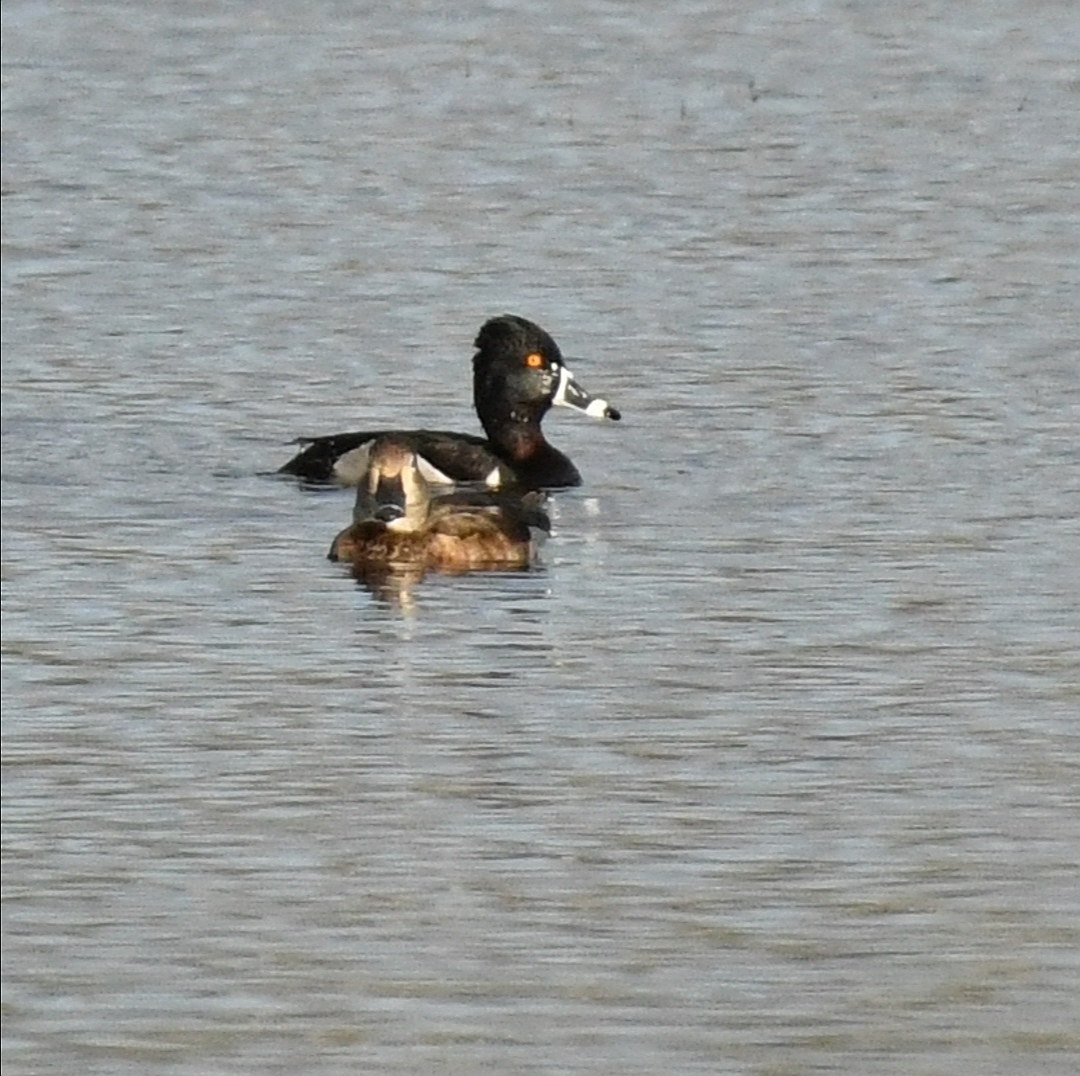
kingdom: Animalia
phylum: Chordata
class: Aves
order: Anseriformes
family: Anatidae
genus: Aythya
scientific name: Aythya collaris
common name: Ring-necked duck
